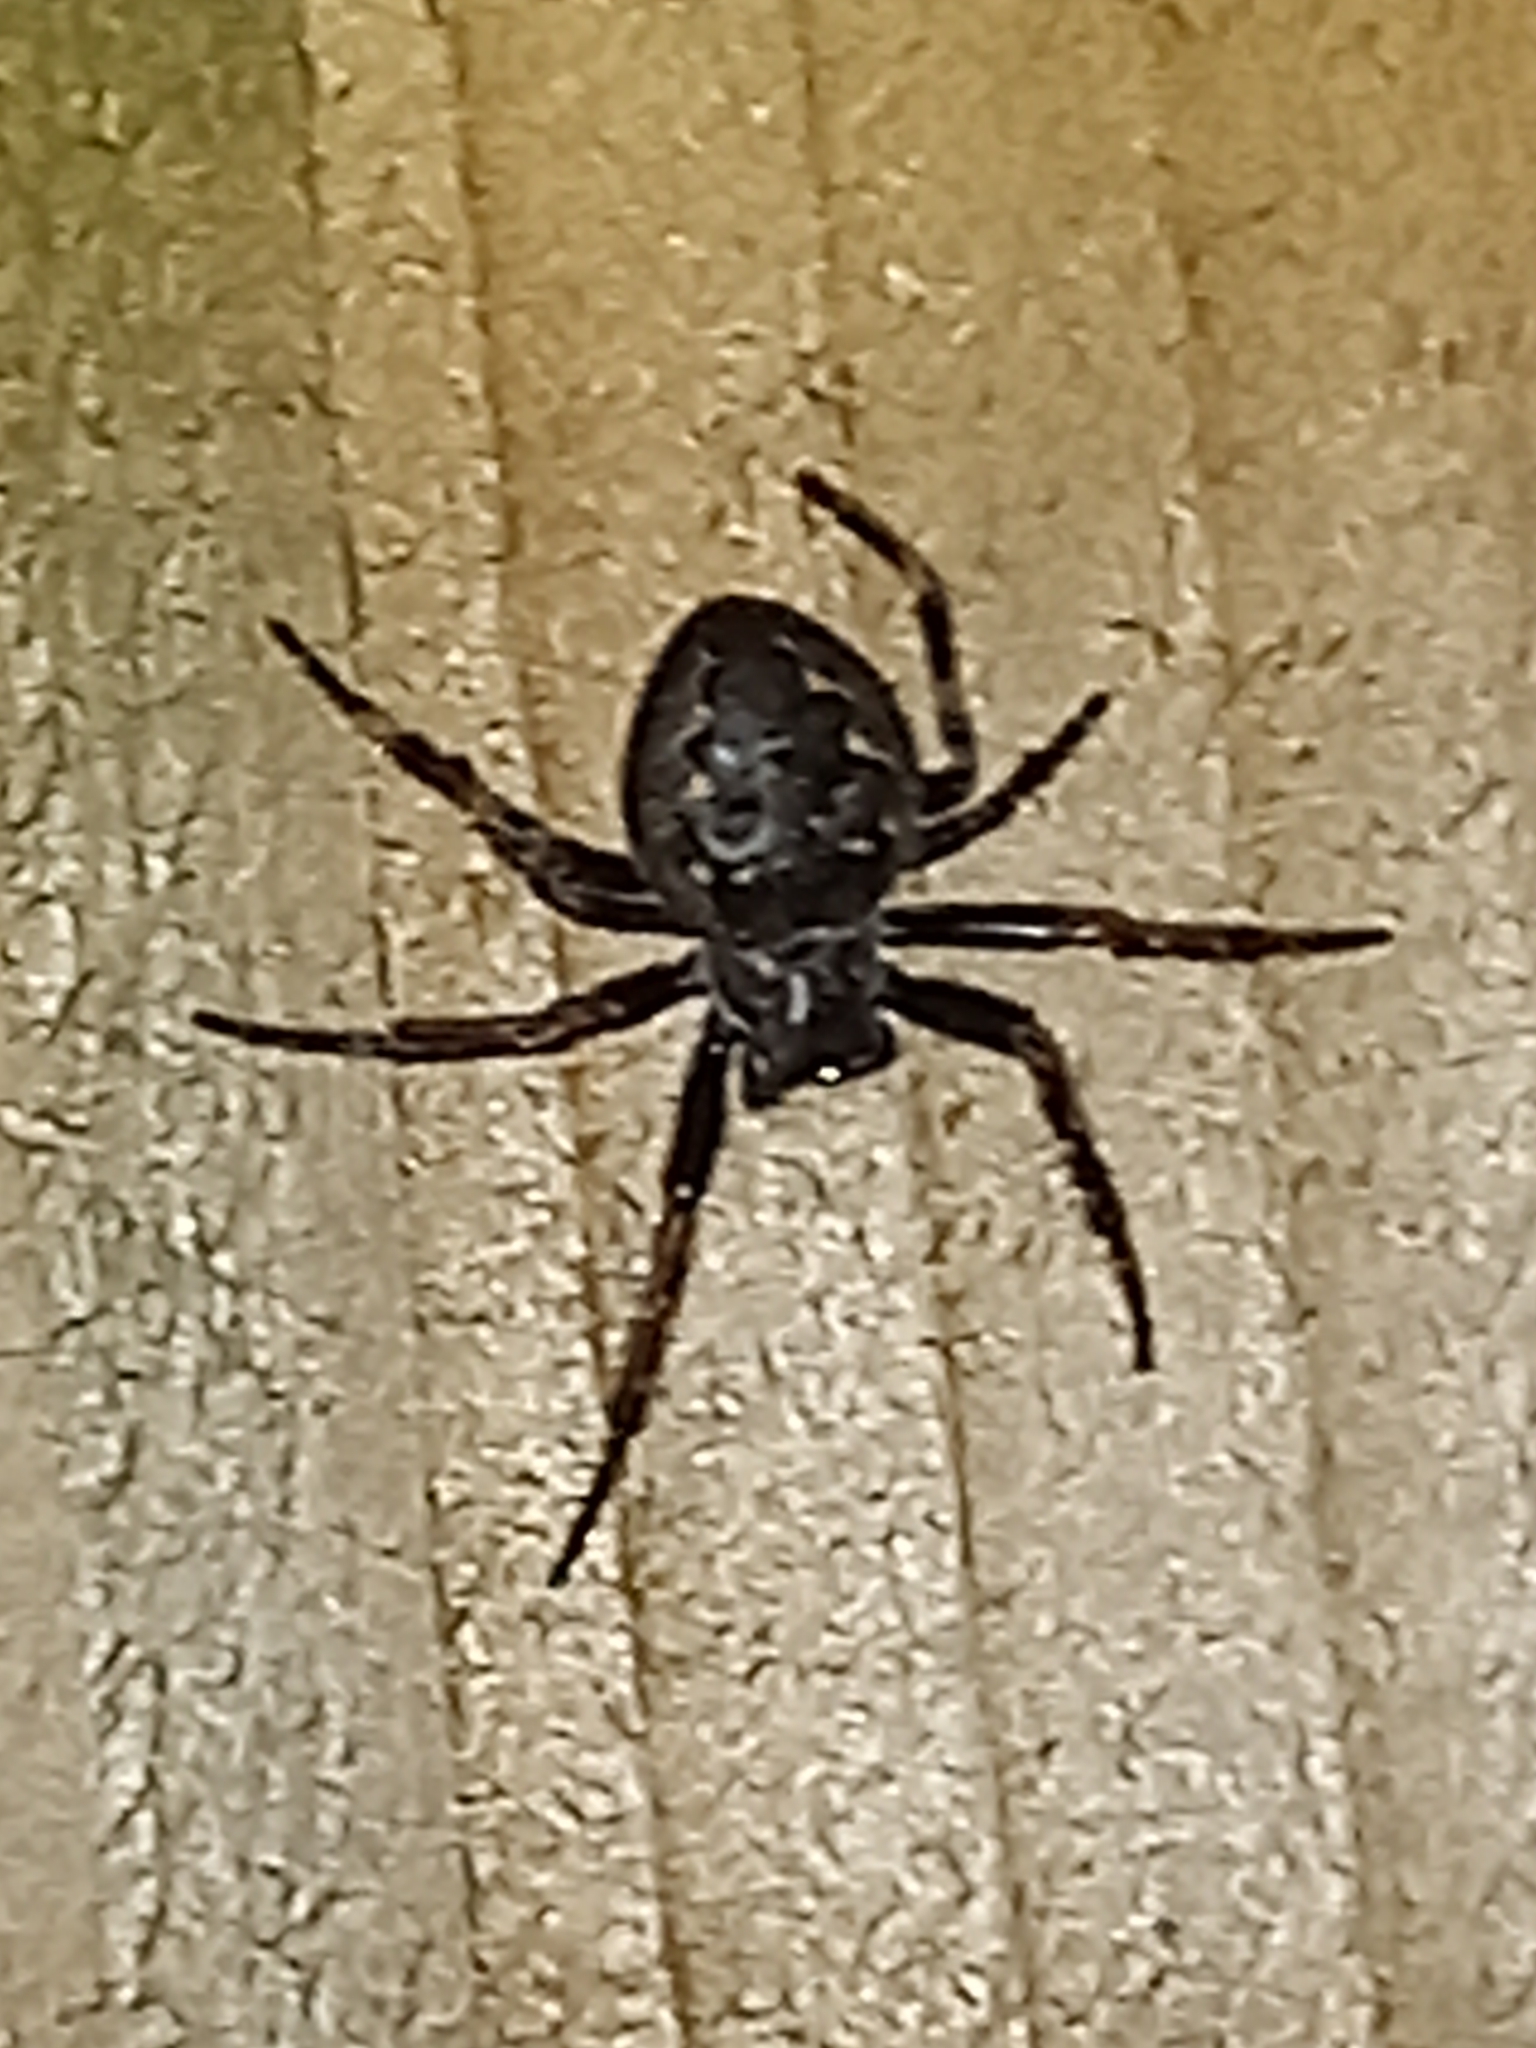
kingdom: Animalia
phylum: Arthropoda
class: Arachnida
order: Araneae
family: Araneidae
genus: Nuctenea
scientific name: Nuctenea umbratica
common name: Toad spider
